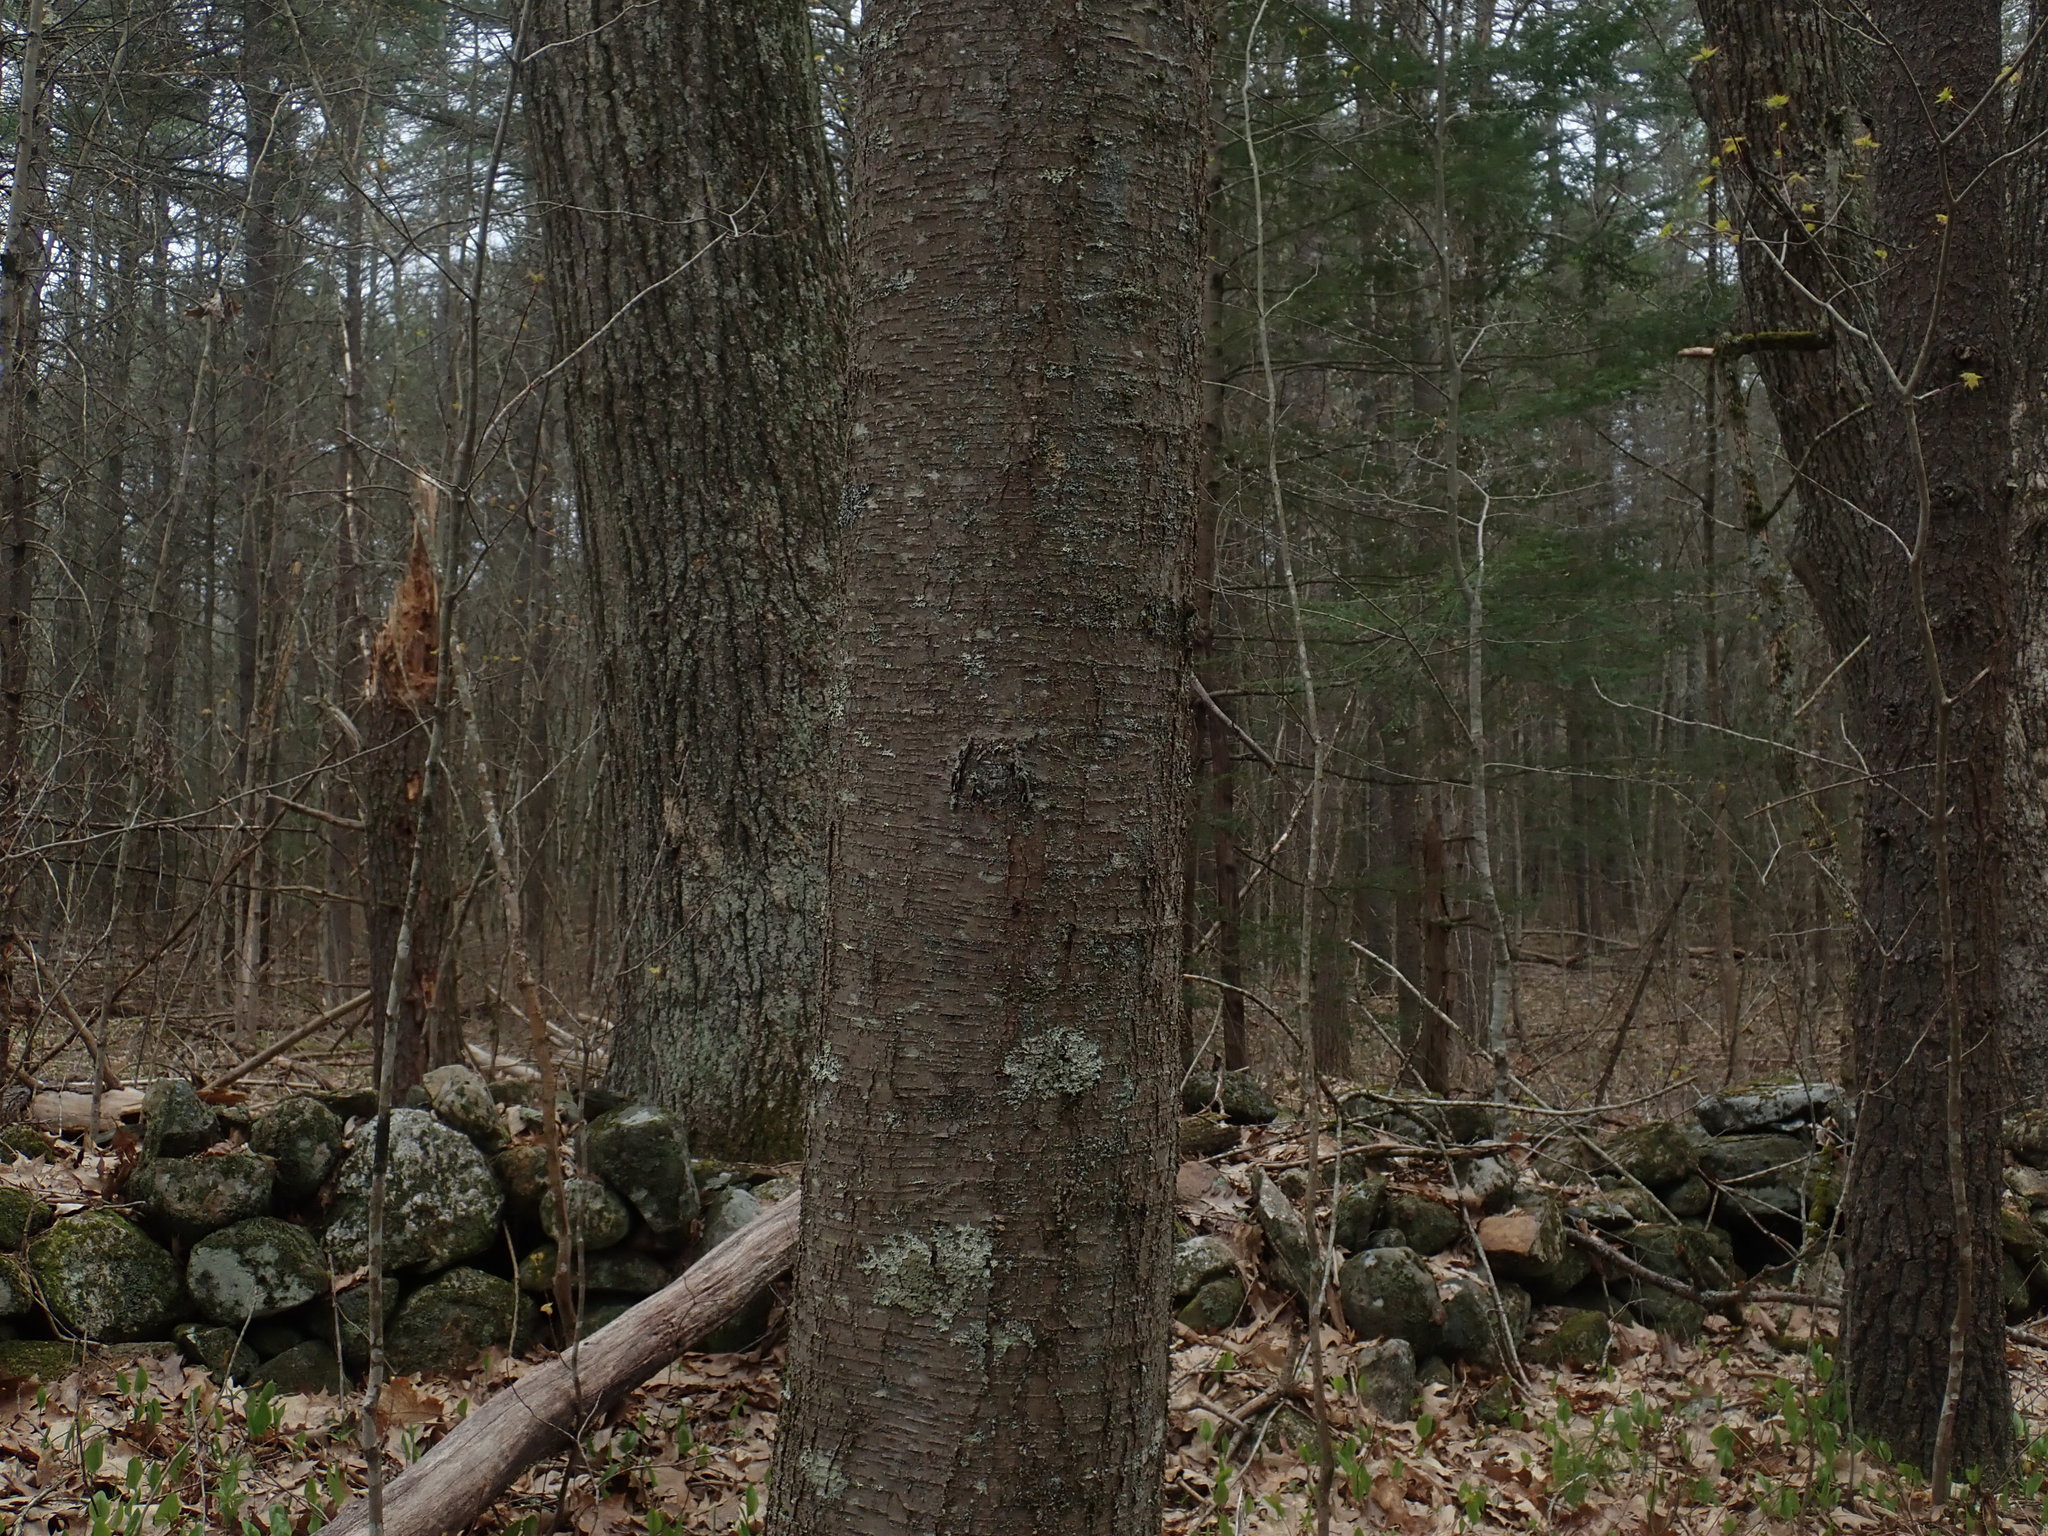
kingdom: Plantae
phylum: Tracheophyta
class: Magnoliopsida
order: Fagales
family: Betulaceae
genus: Betula
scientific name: Betula lenta
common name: Black birch
